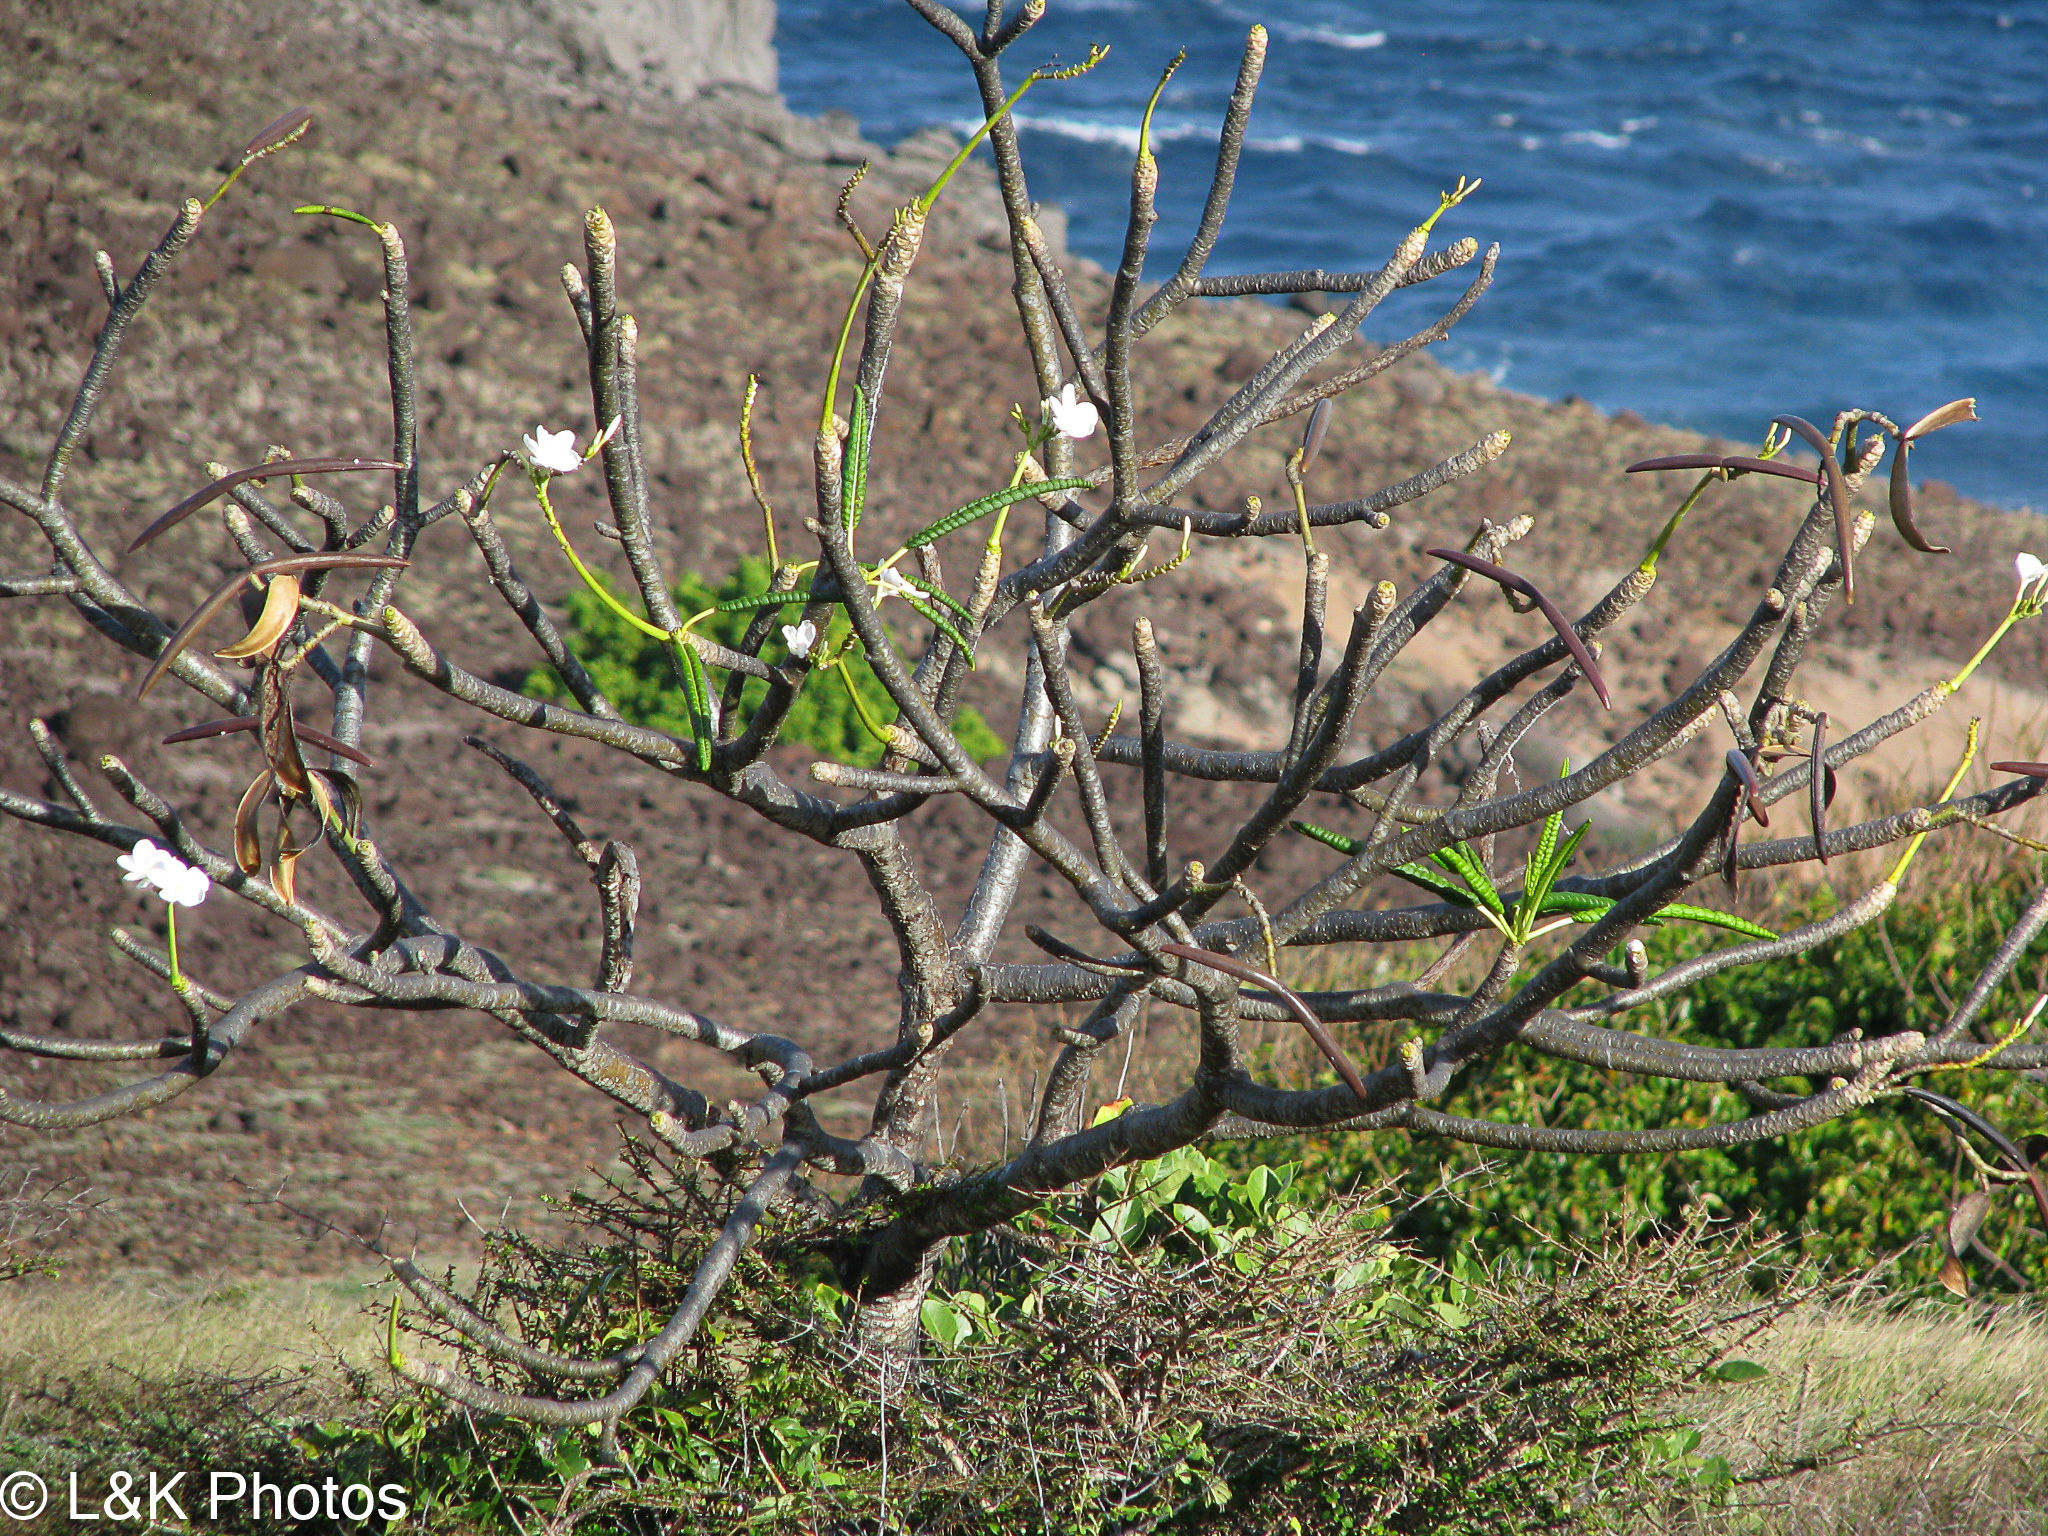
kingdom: Plantae
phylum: Tracheophyta
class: Magnoliopsida
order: Gentianales
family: Apocynaceae
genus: Plumeria
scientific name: Plumeria alba
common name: Wild frangipani
